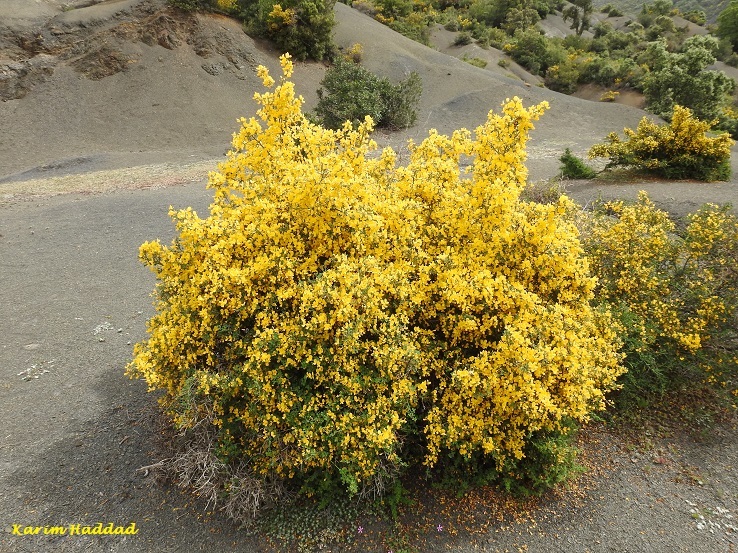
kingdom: Plantae
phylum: Tracheophyta
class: Magnoliopsida
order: Fabales
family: Fabaceae
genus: Calicotome
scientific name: Calicotome spinosa
